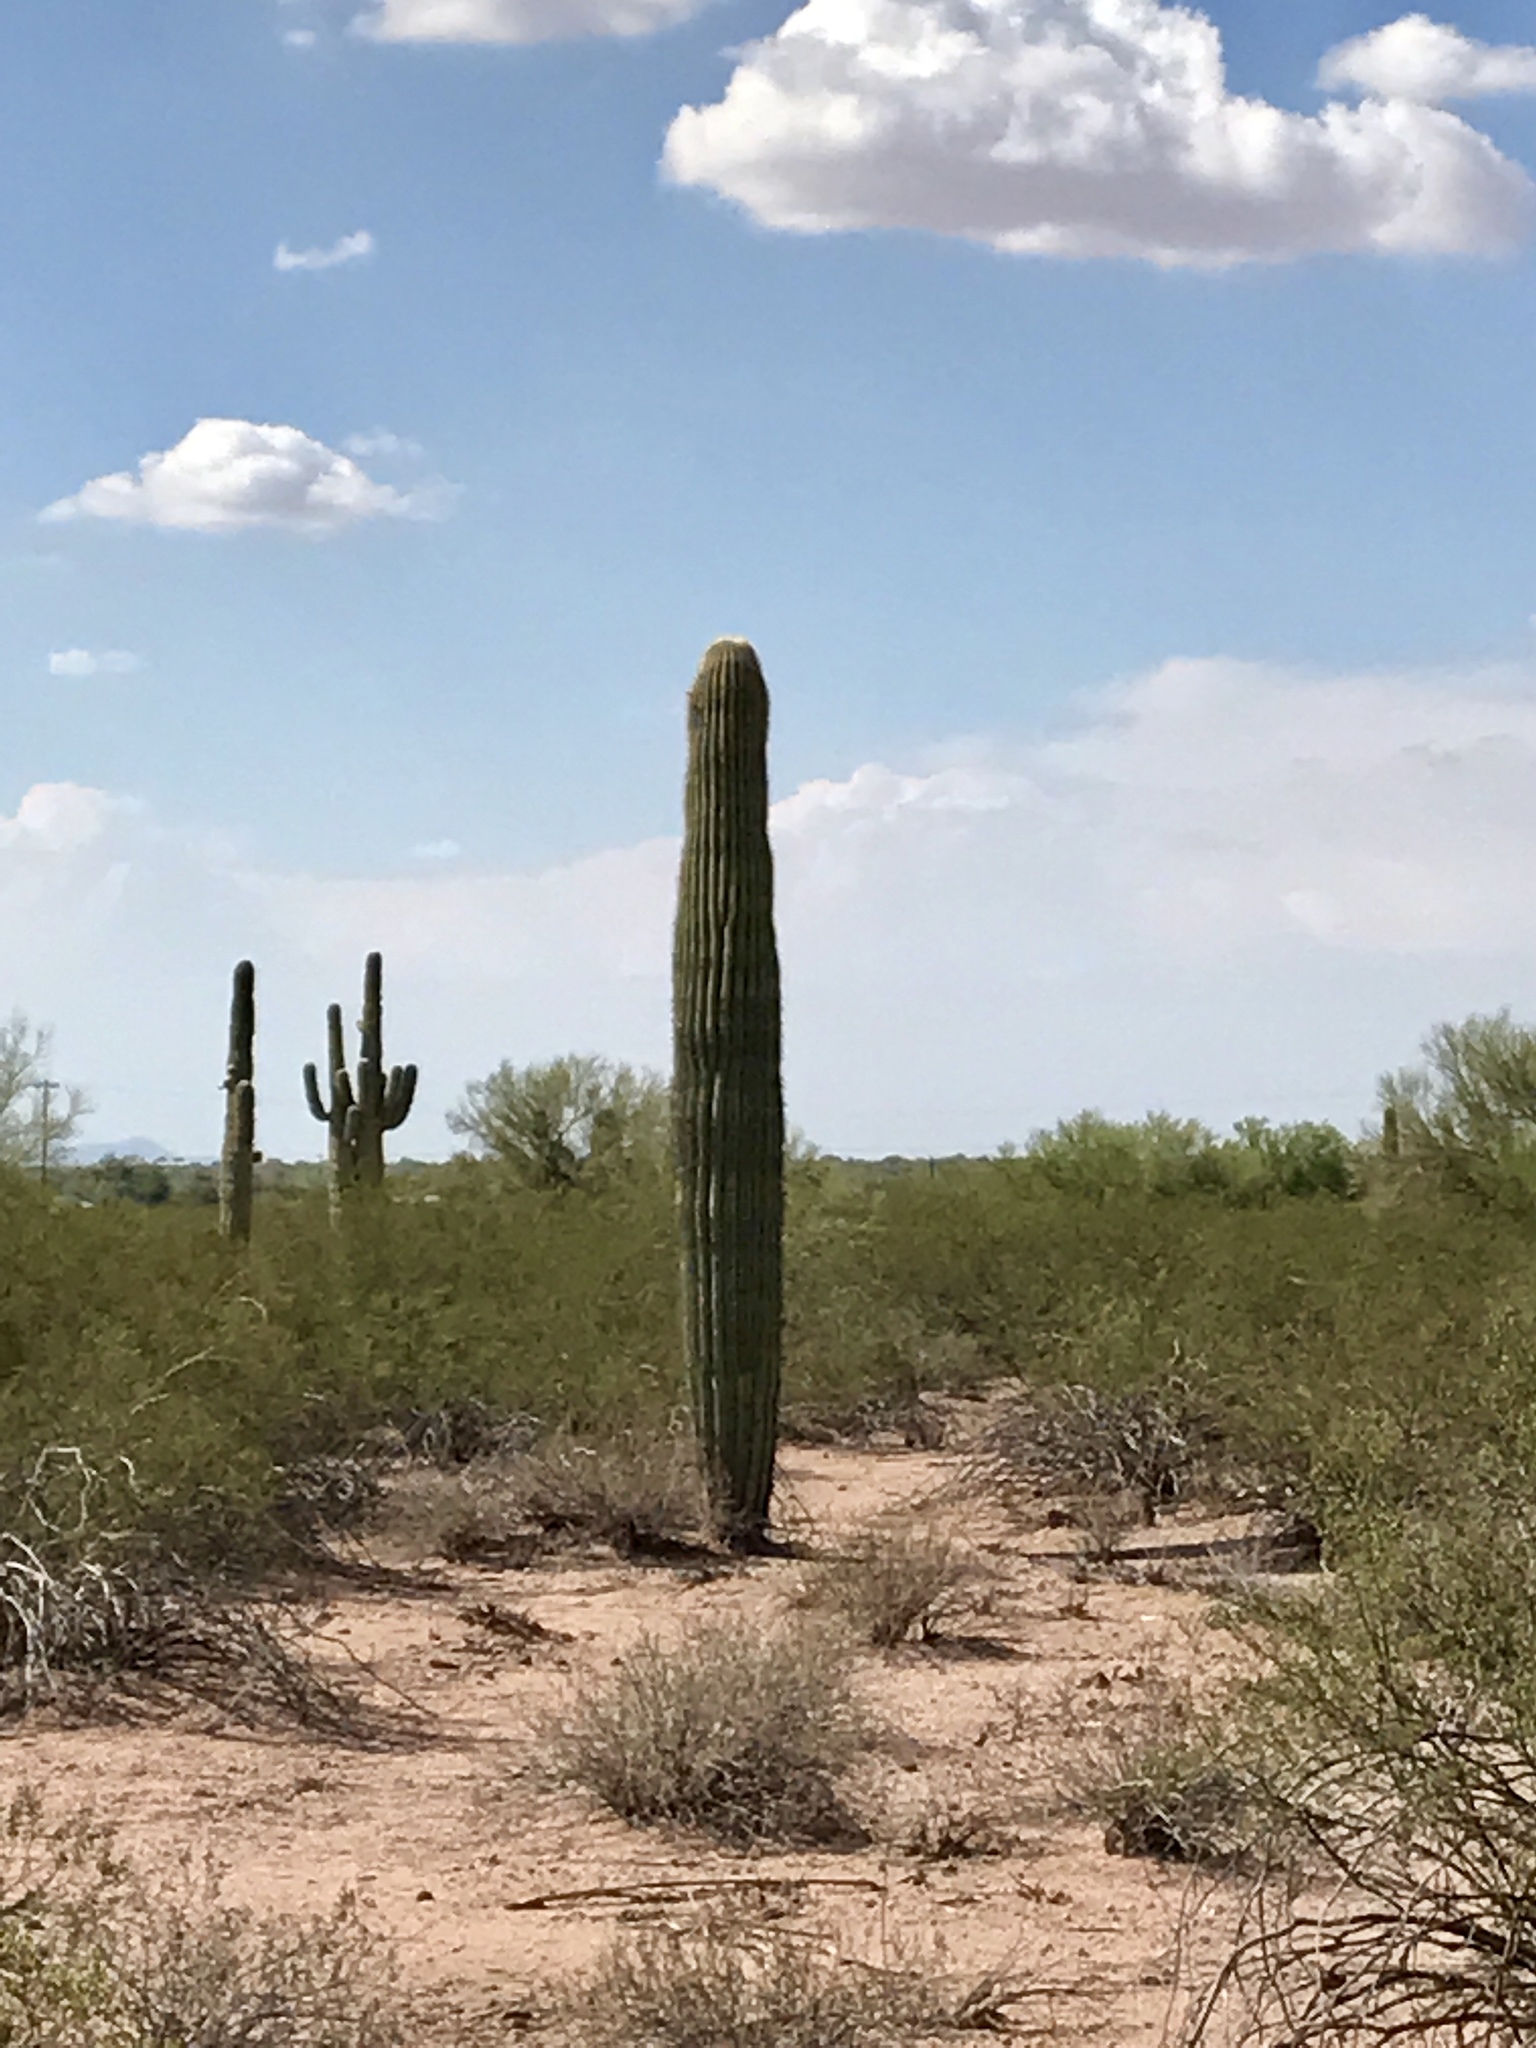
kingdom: Plantae
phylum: Tracheophyta
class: Magnoliopsida
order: Caryophyllales
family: Cactaceae
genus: Carnegiea
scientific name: Carnegiea gigantea
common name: Saguaro
